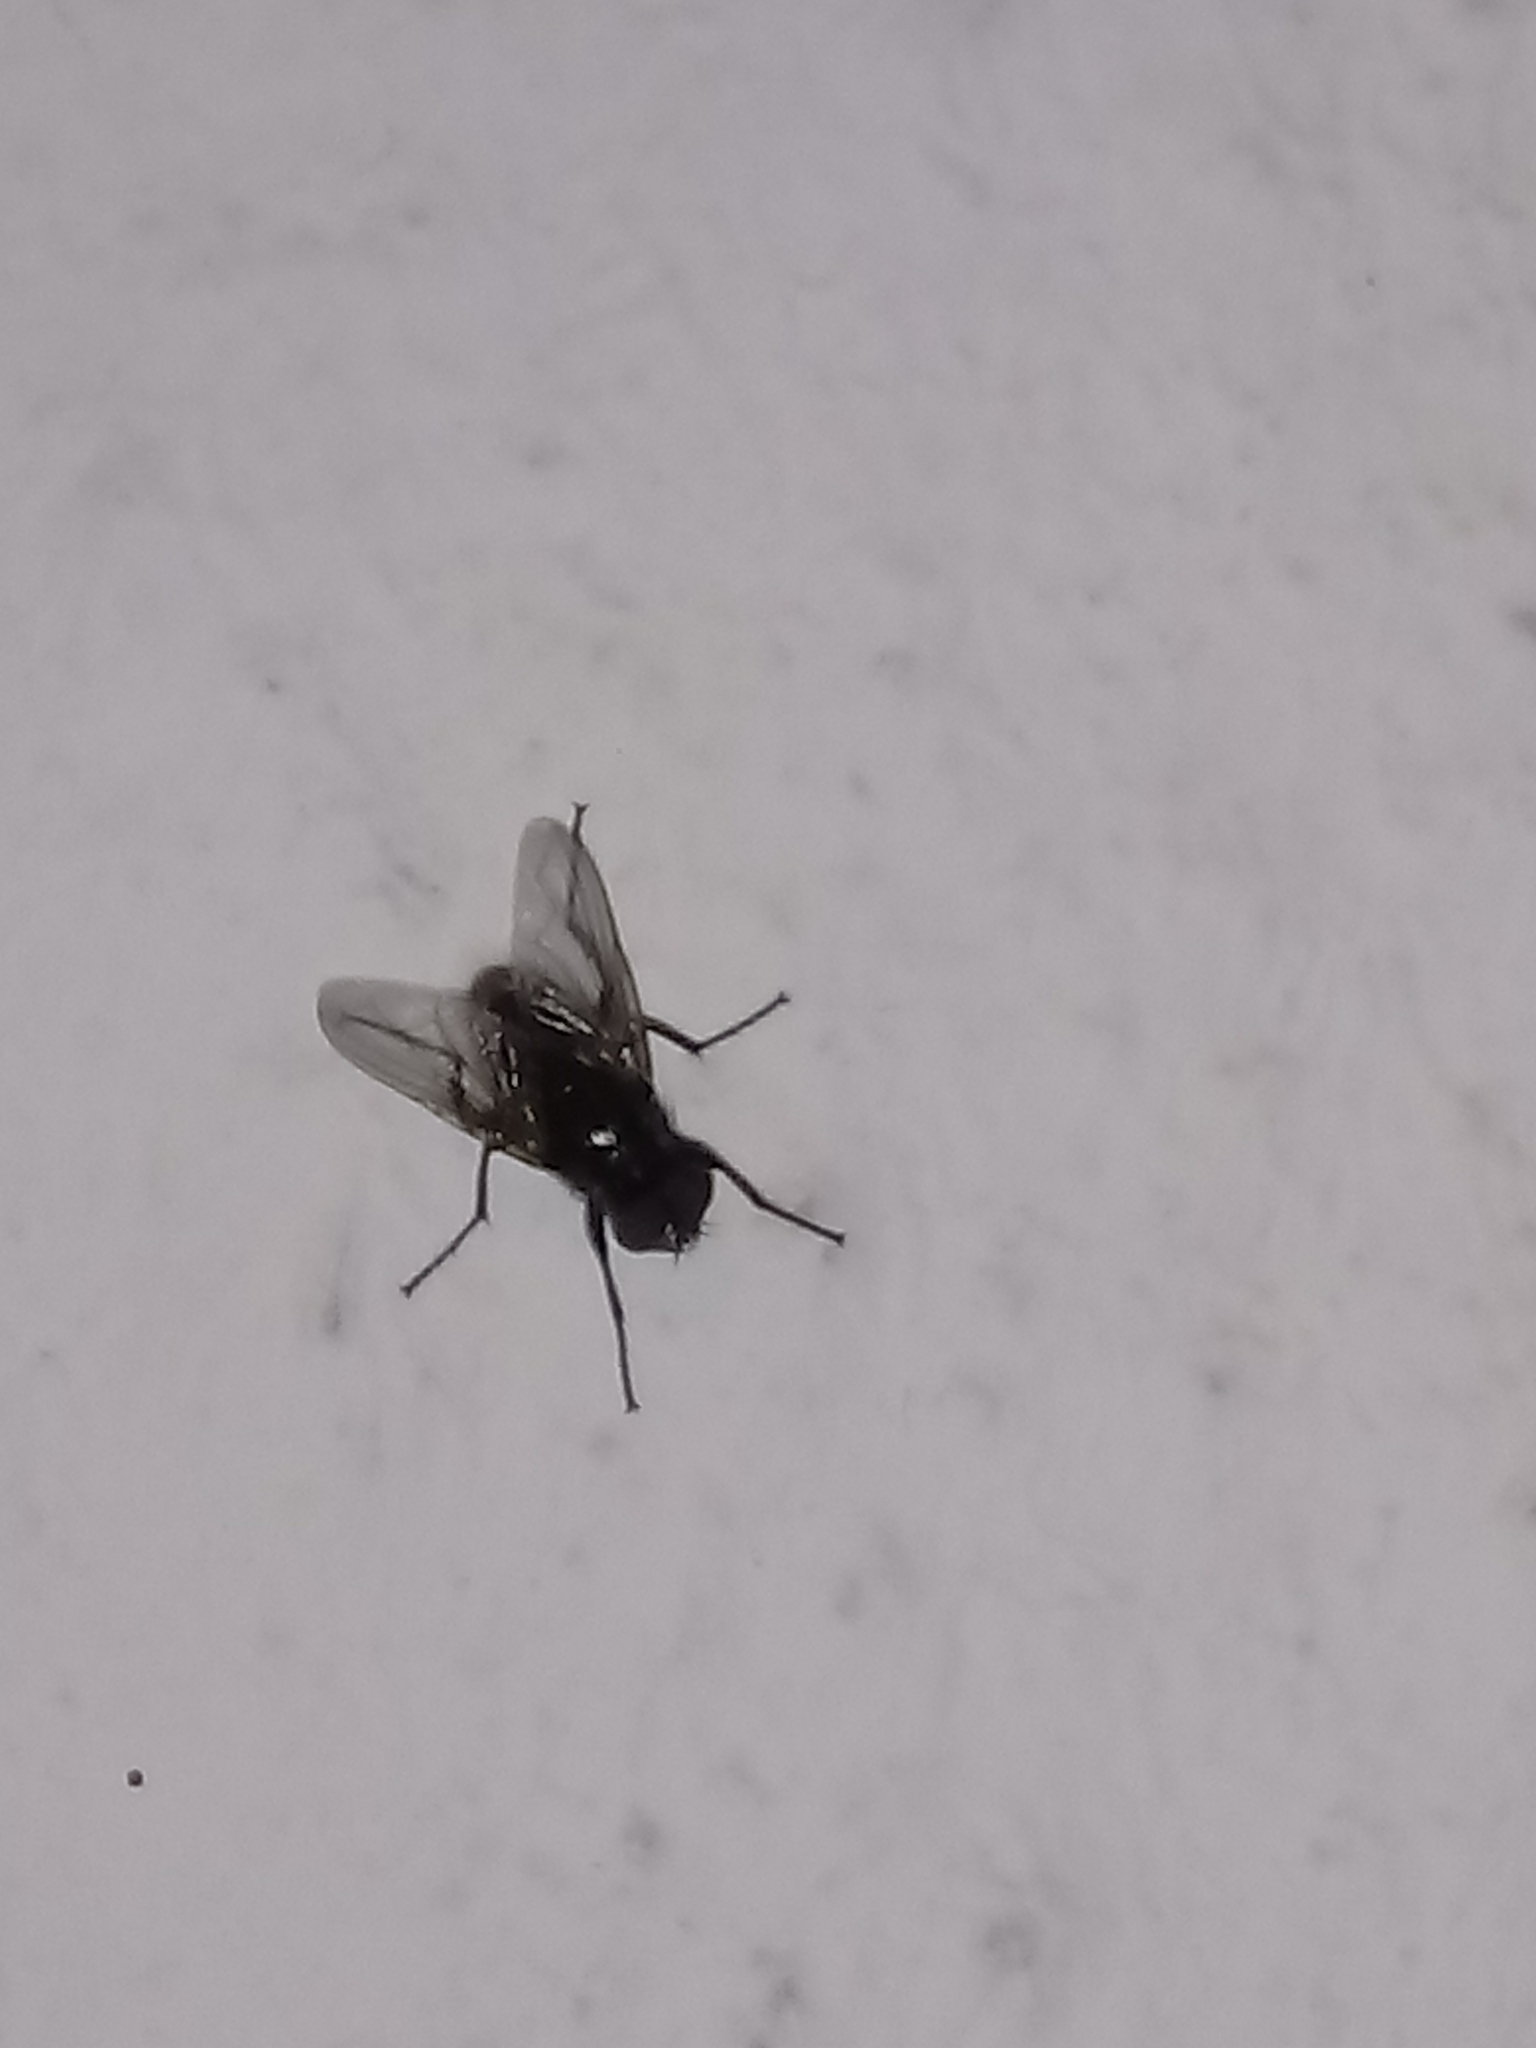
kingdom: Animalia
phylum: Arthropoda
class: Insecta
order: Diptera
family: Muscidae
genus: Musca
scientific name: Musca domestica
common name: House fly
